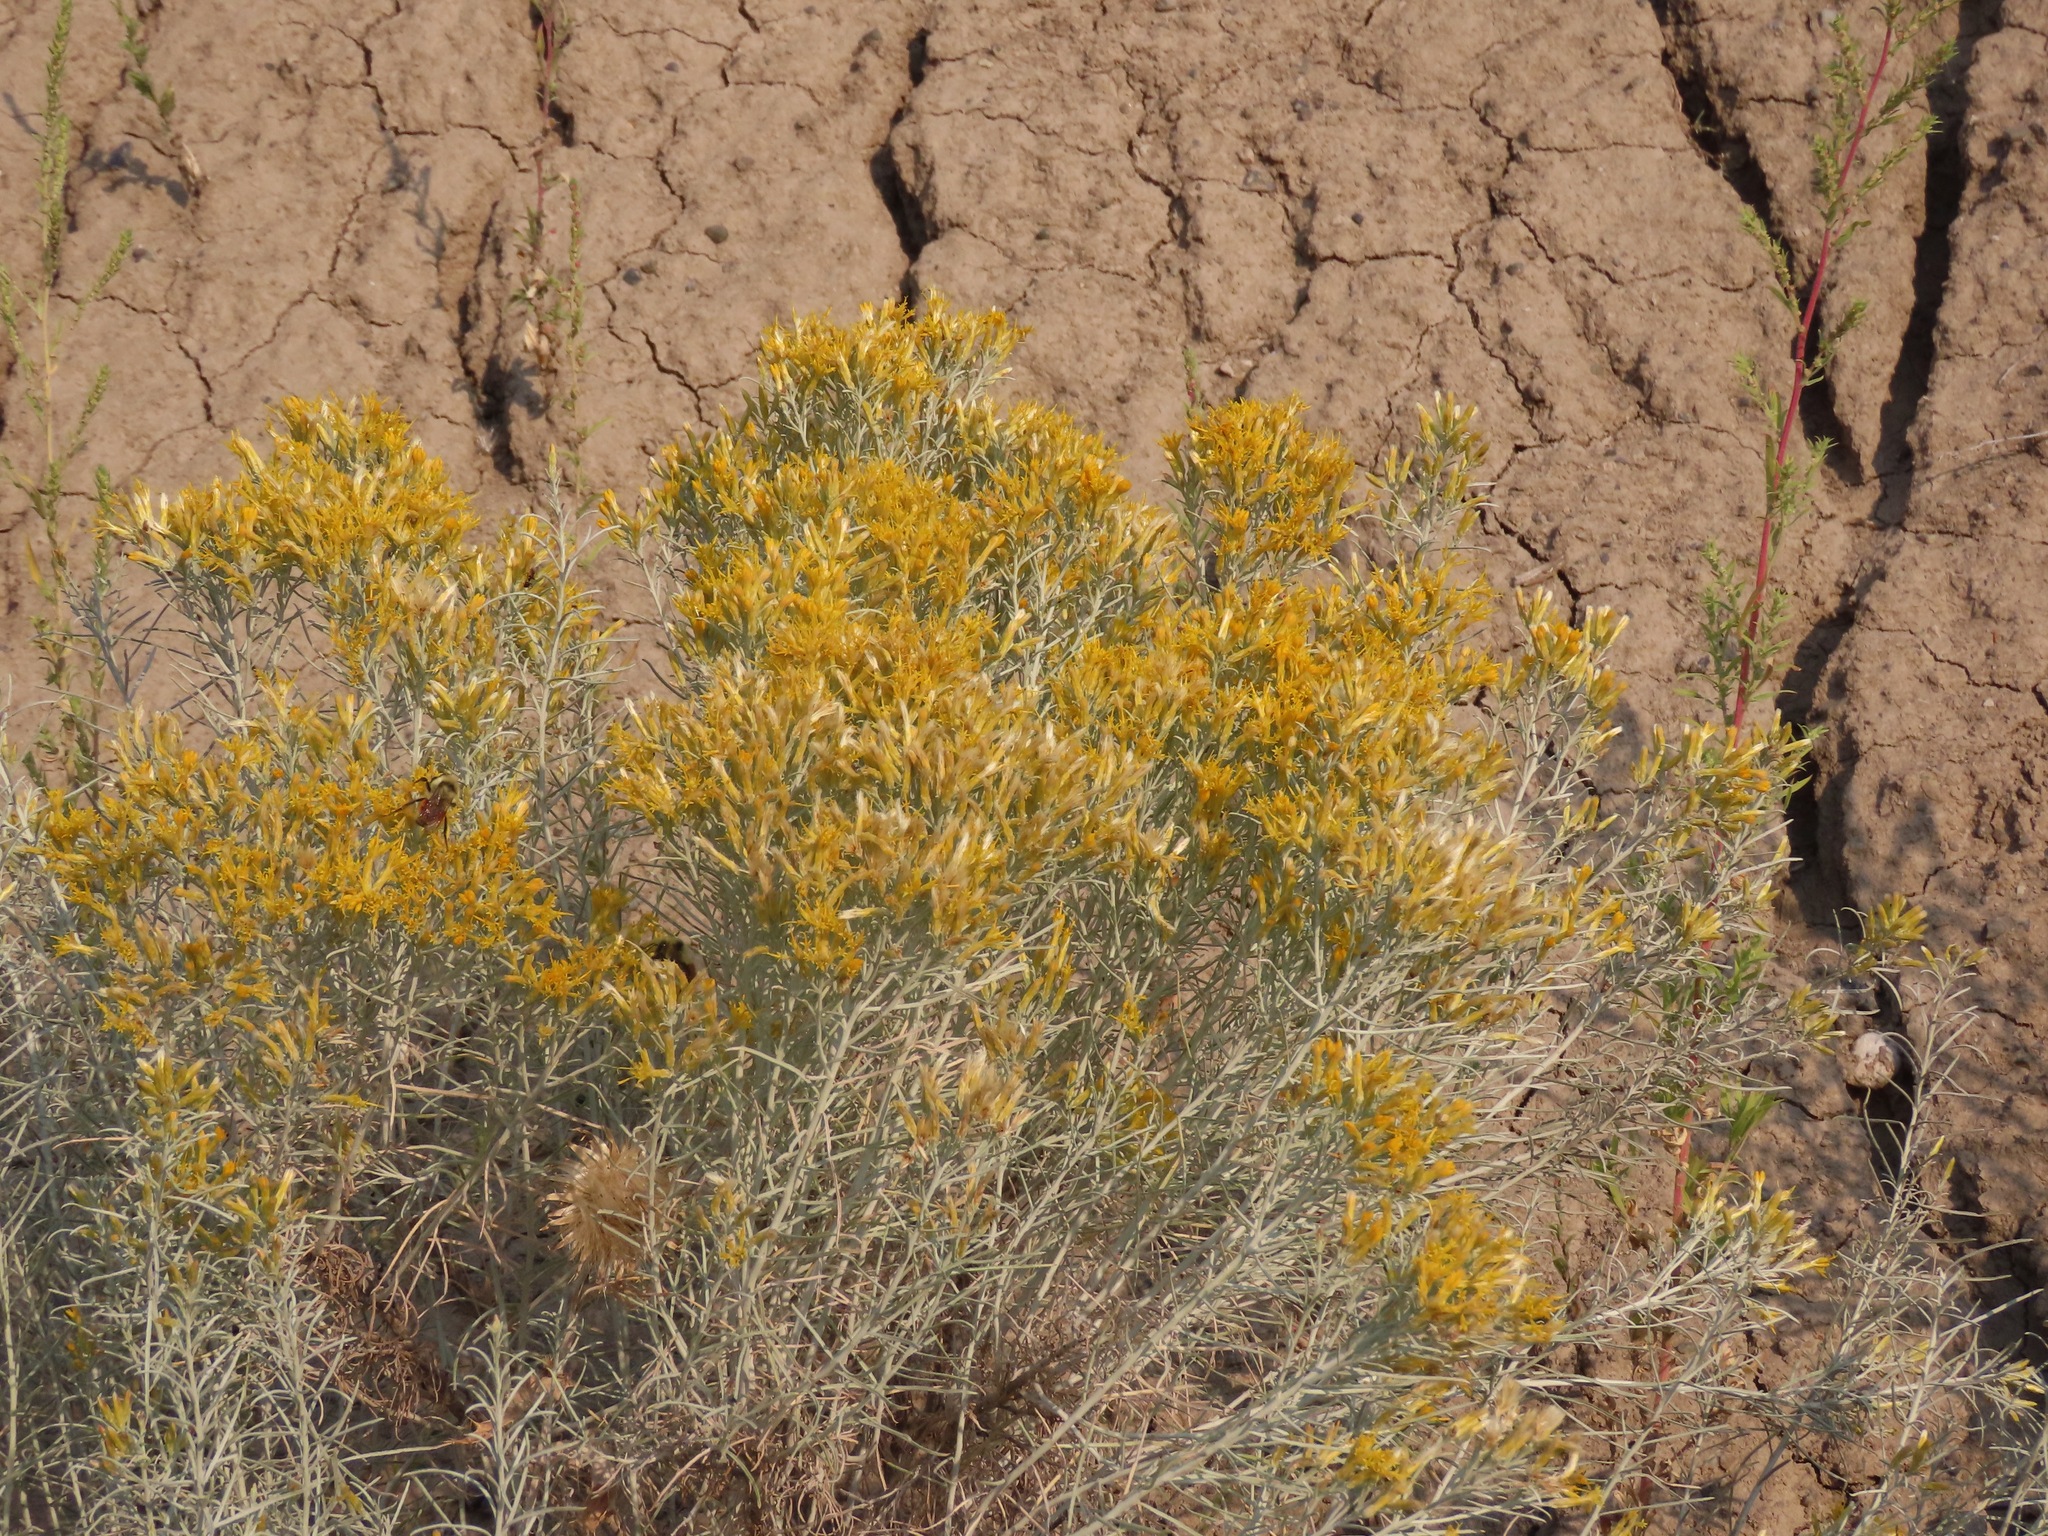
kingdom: Plantae
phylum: Tracheophyta
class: Magnoliopsida
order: Asterales
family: Asteraceae
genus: Ericameria
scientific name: Ericameria nauseosa
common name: Rubber rabbitbrush
